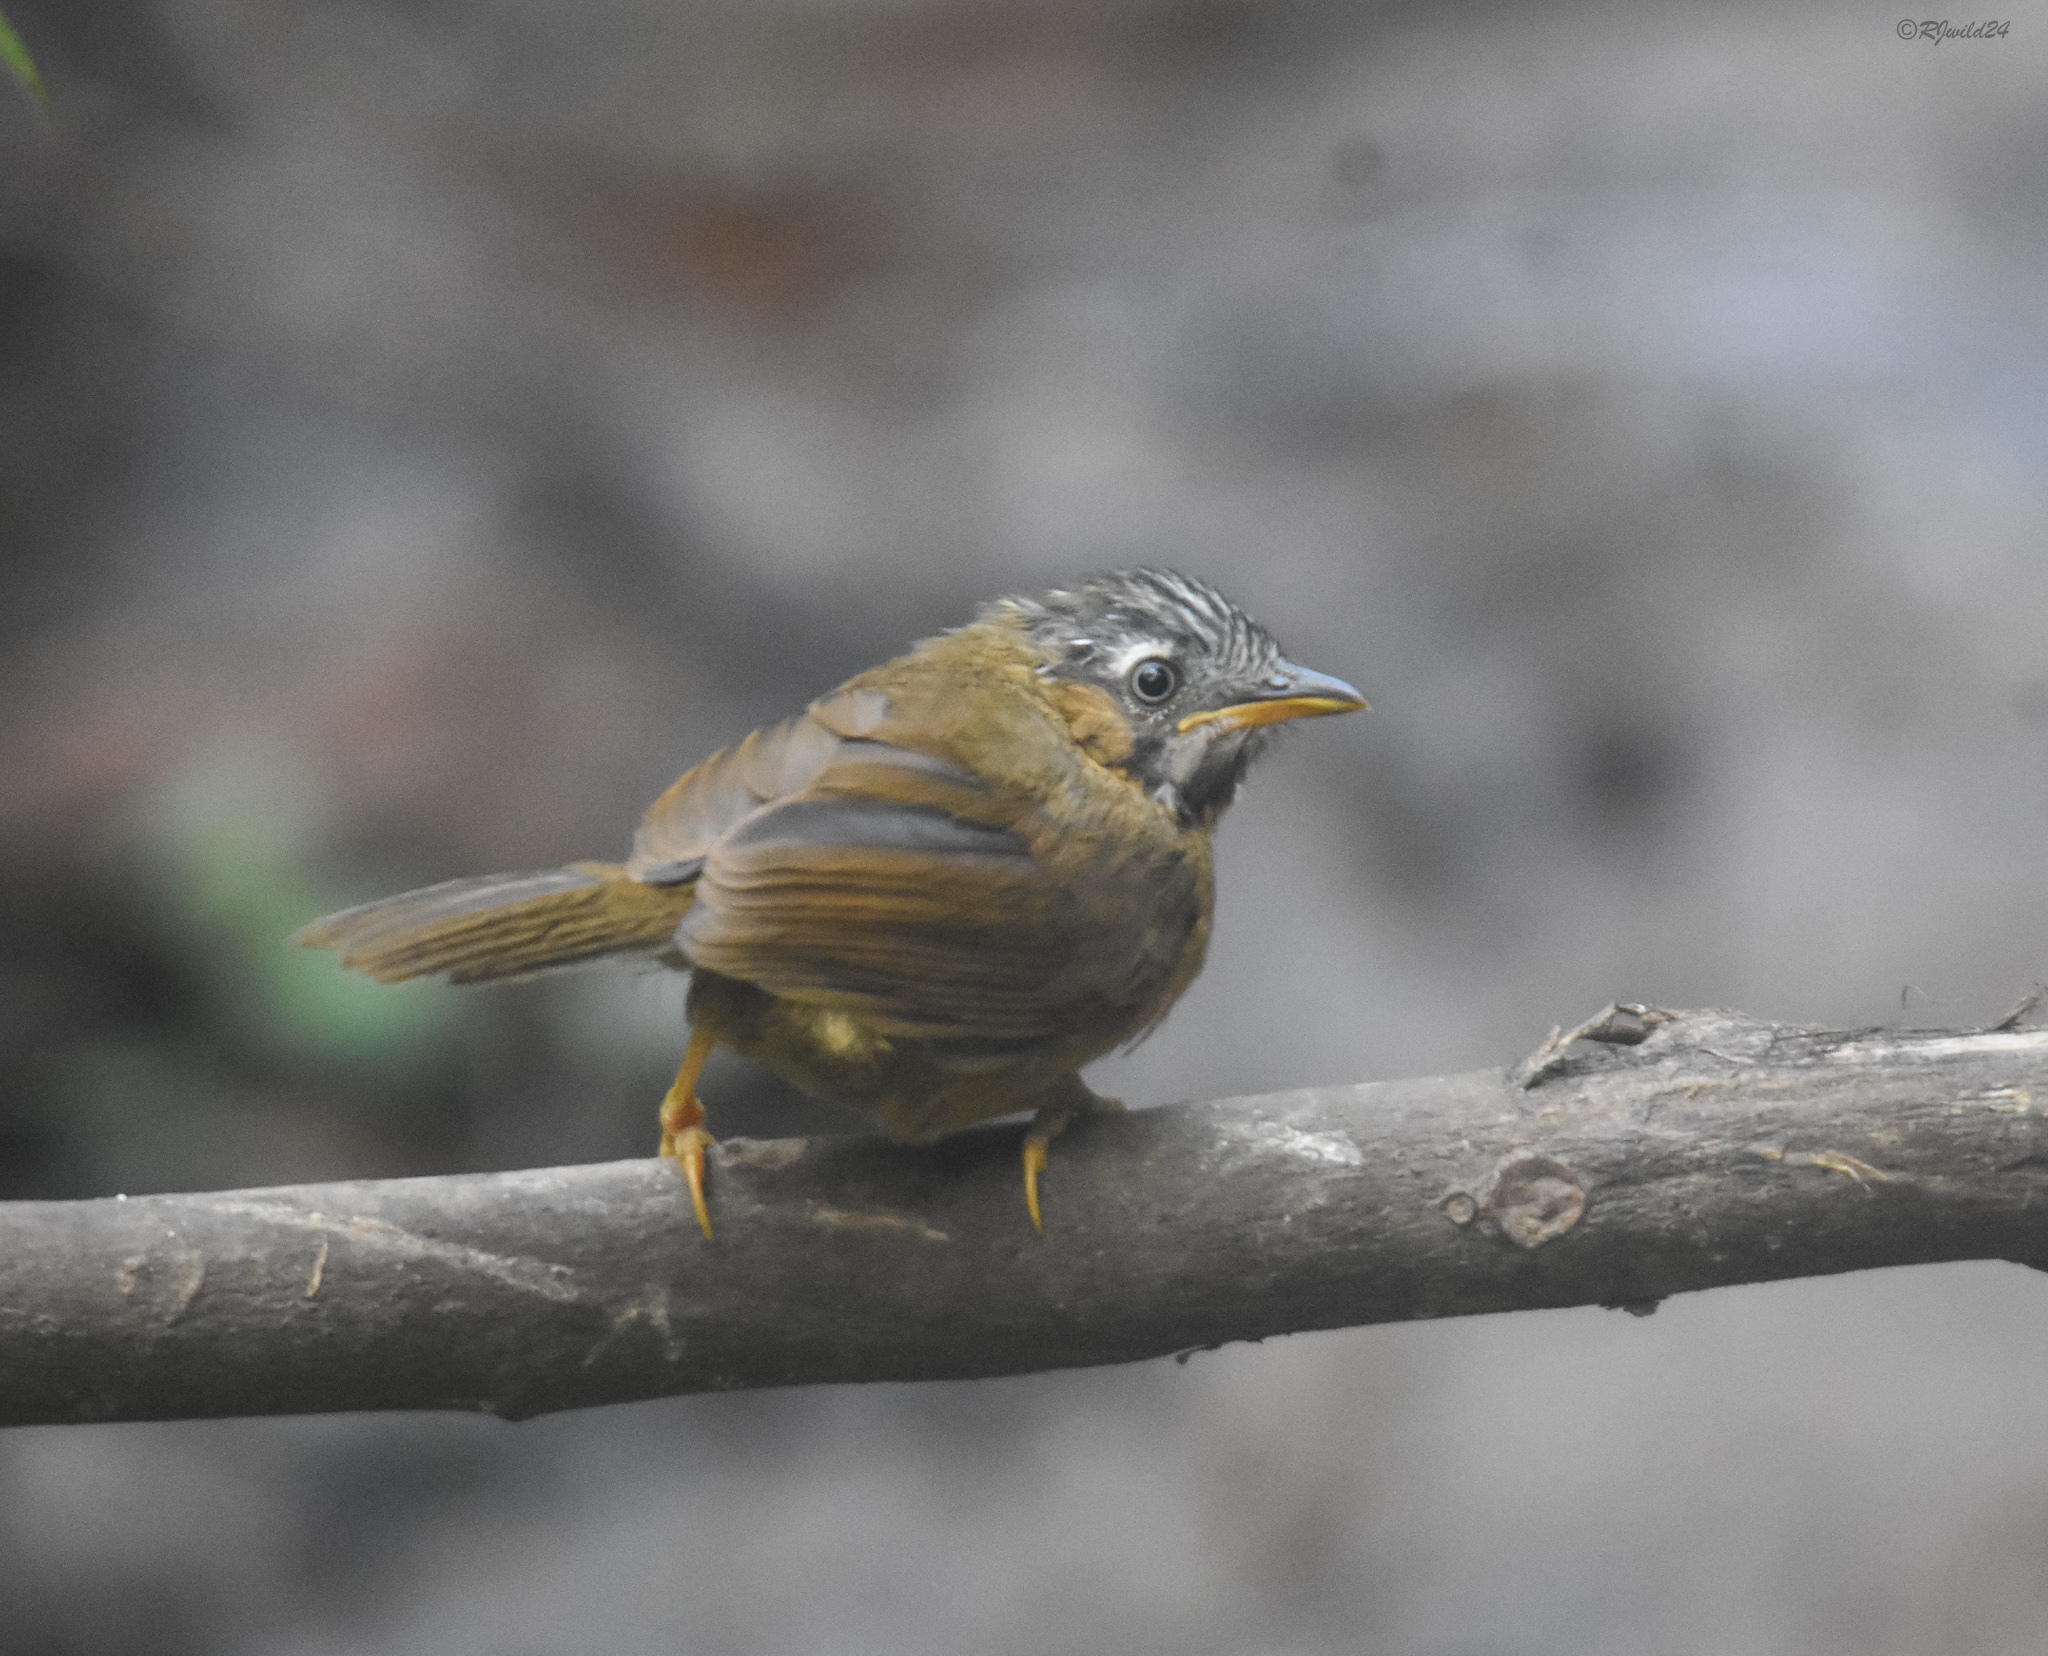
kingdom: Animalia
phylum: Chordata
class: Aves
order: Passeriformes
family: Timaliidae
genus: Stachyris
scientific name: Stachyris nigriceps
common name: Grey-throated babbler
